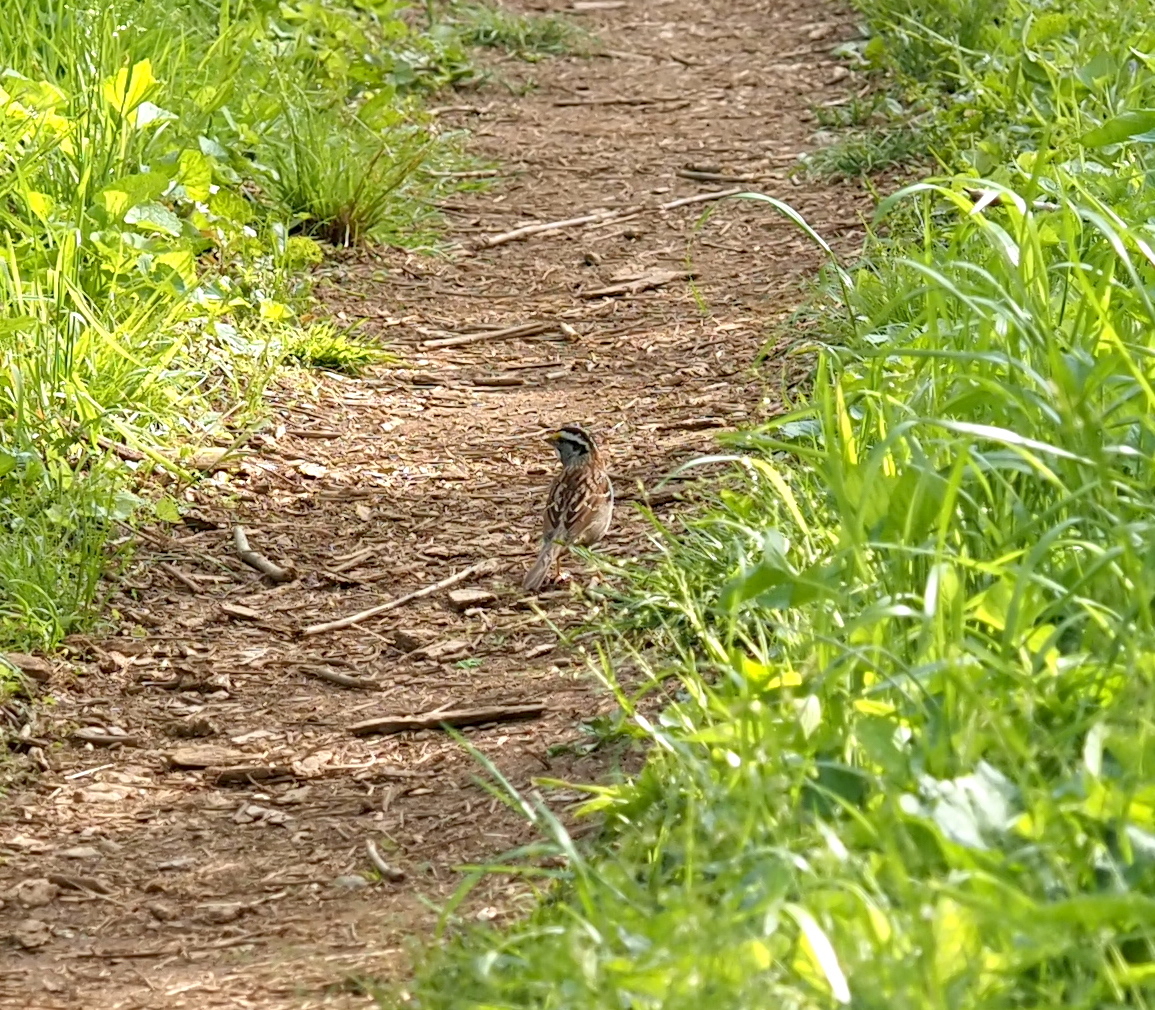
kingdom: Animalia
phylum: Chordata
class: Aves
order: Passeriformes
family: Passerellidae
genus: Zonotrichia
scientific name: Zonotrichia albicollis
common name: White-throated sparrow
